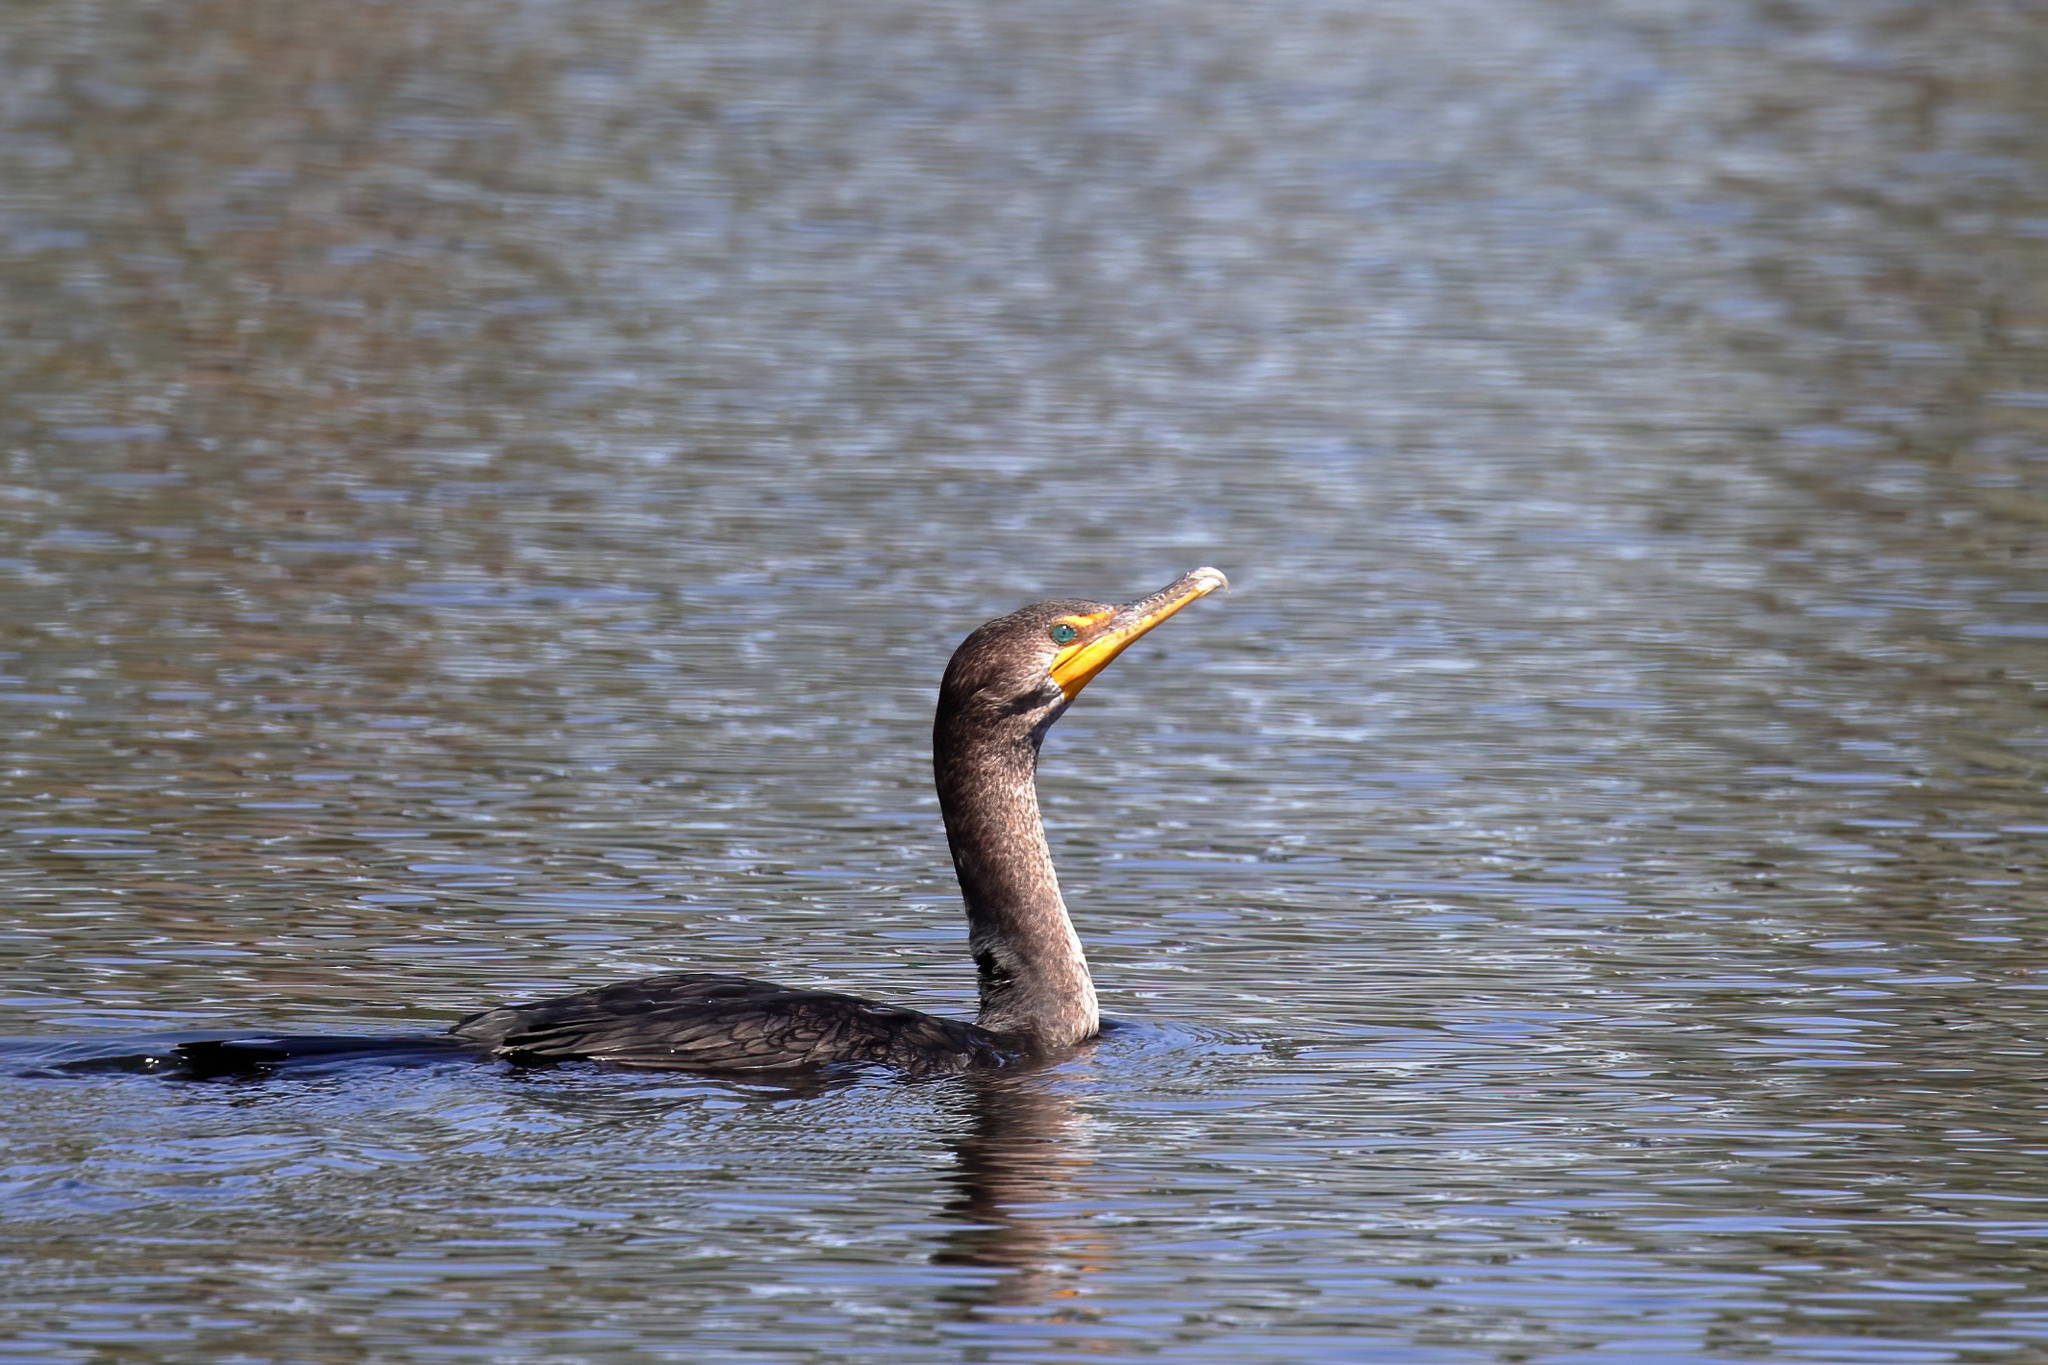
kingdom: Animalia
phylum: Chordata
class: Aves
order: Suliformes
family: Phalacrocoracidae
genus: Phalacrocorax
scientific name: Phalacrocorax auritus
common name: Double-crested cormorant
